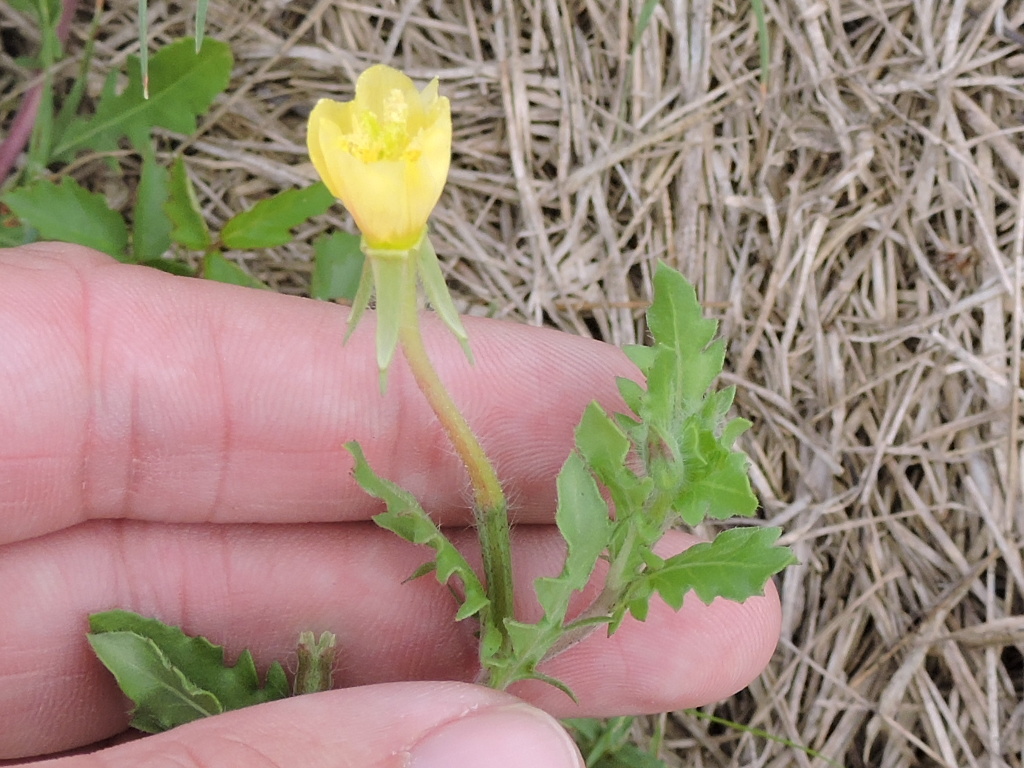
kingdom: Plantae
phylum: Tracheophyta
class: Magnoliopsida
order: Myrtales
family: Onagraceae
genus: Oenothera
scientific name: Oenothera laciniata
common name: Cut-leaved evening-primrose
